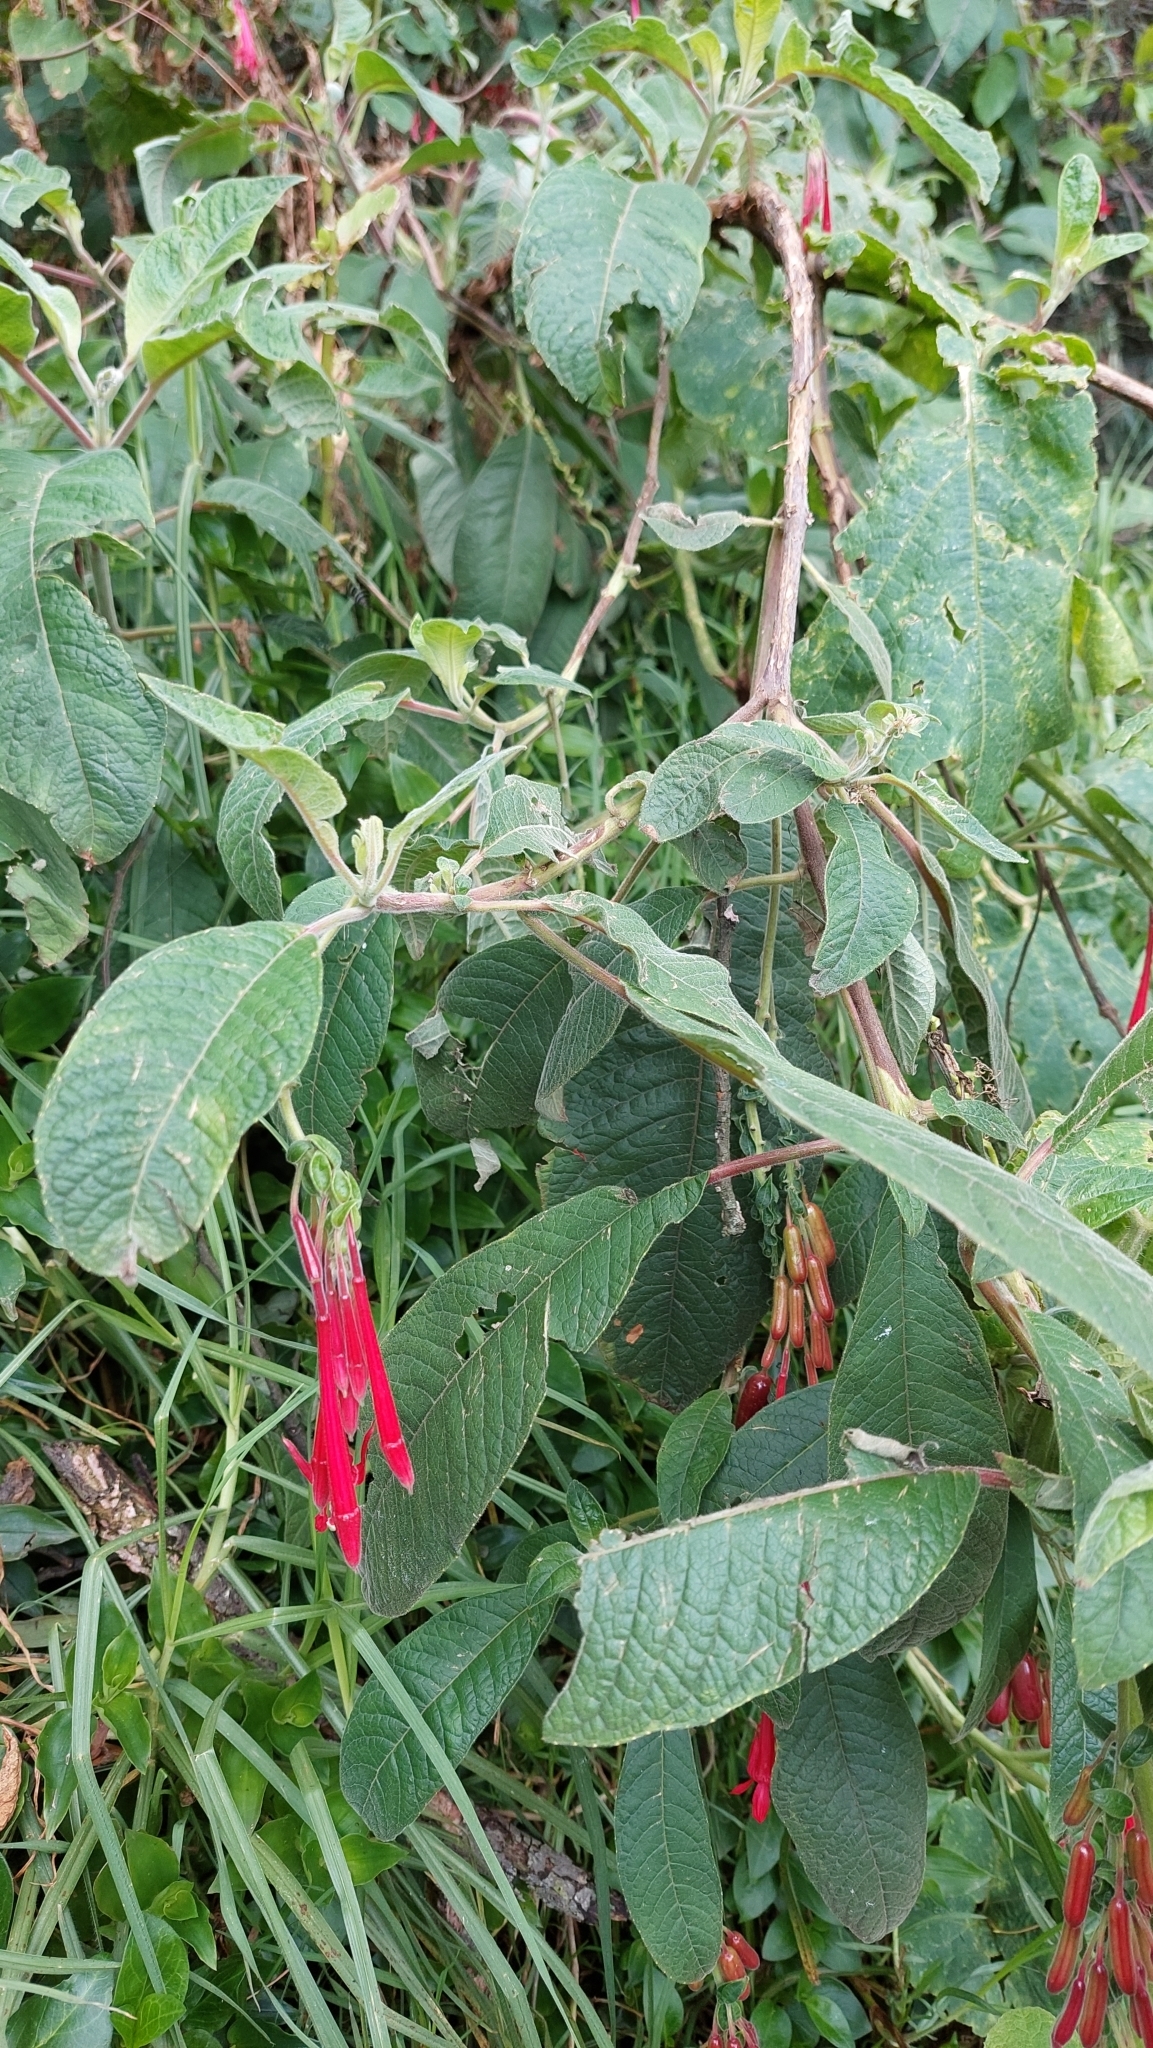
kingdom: Plantae
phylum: Tracheophyta
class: Magnoliopsida
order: Myrtales
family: Onagraceae
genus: Fuchsia
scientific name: Fuchsia boliviana
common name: Bolivian fuchsia
